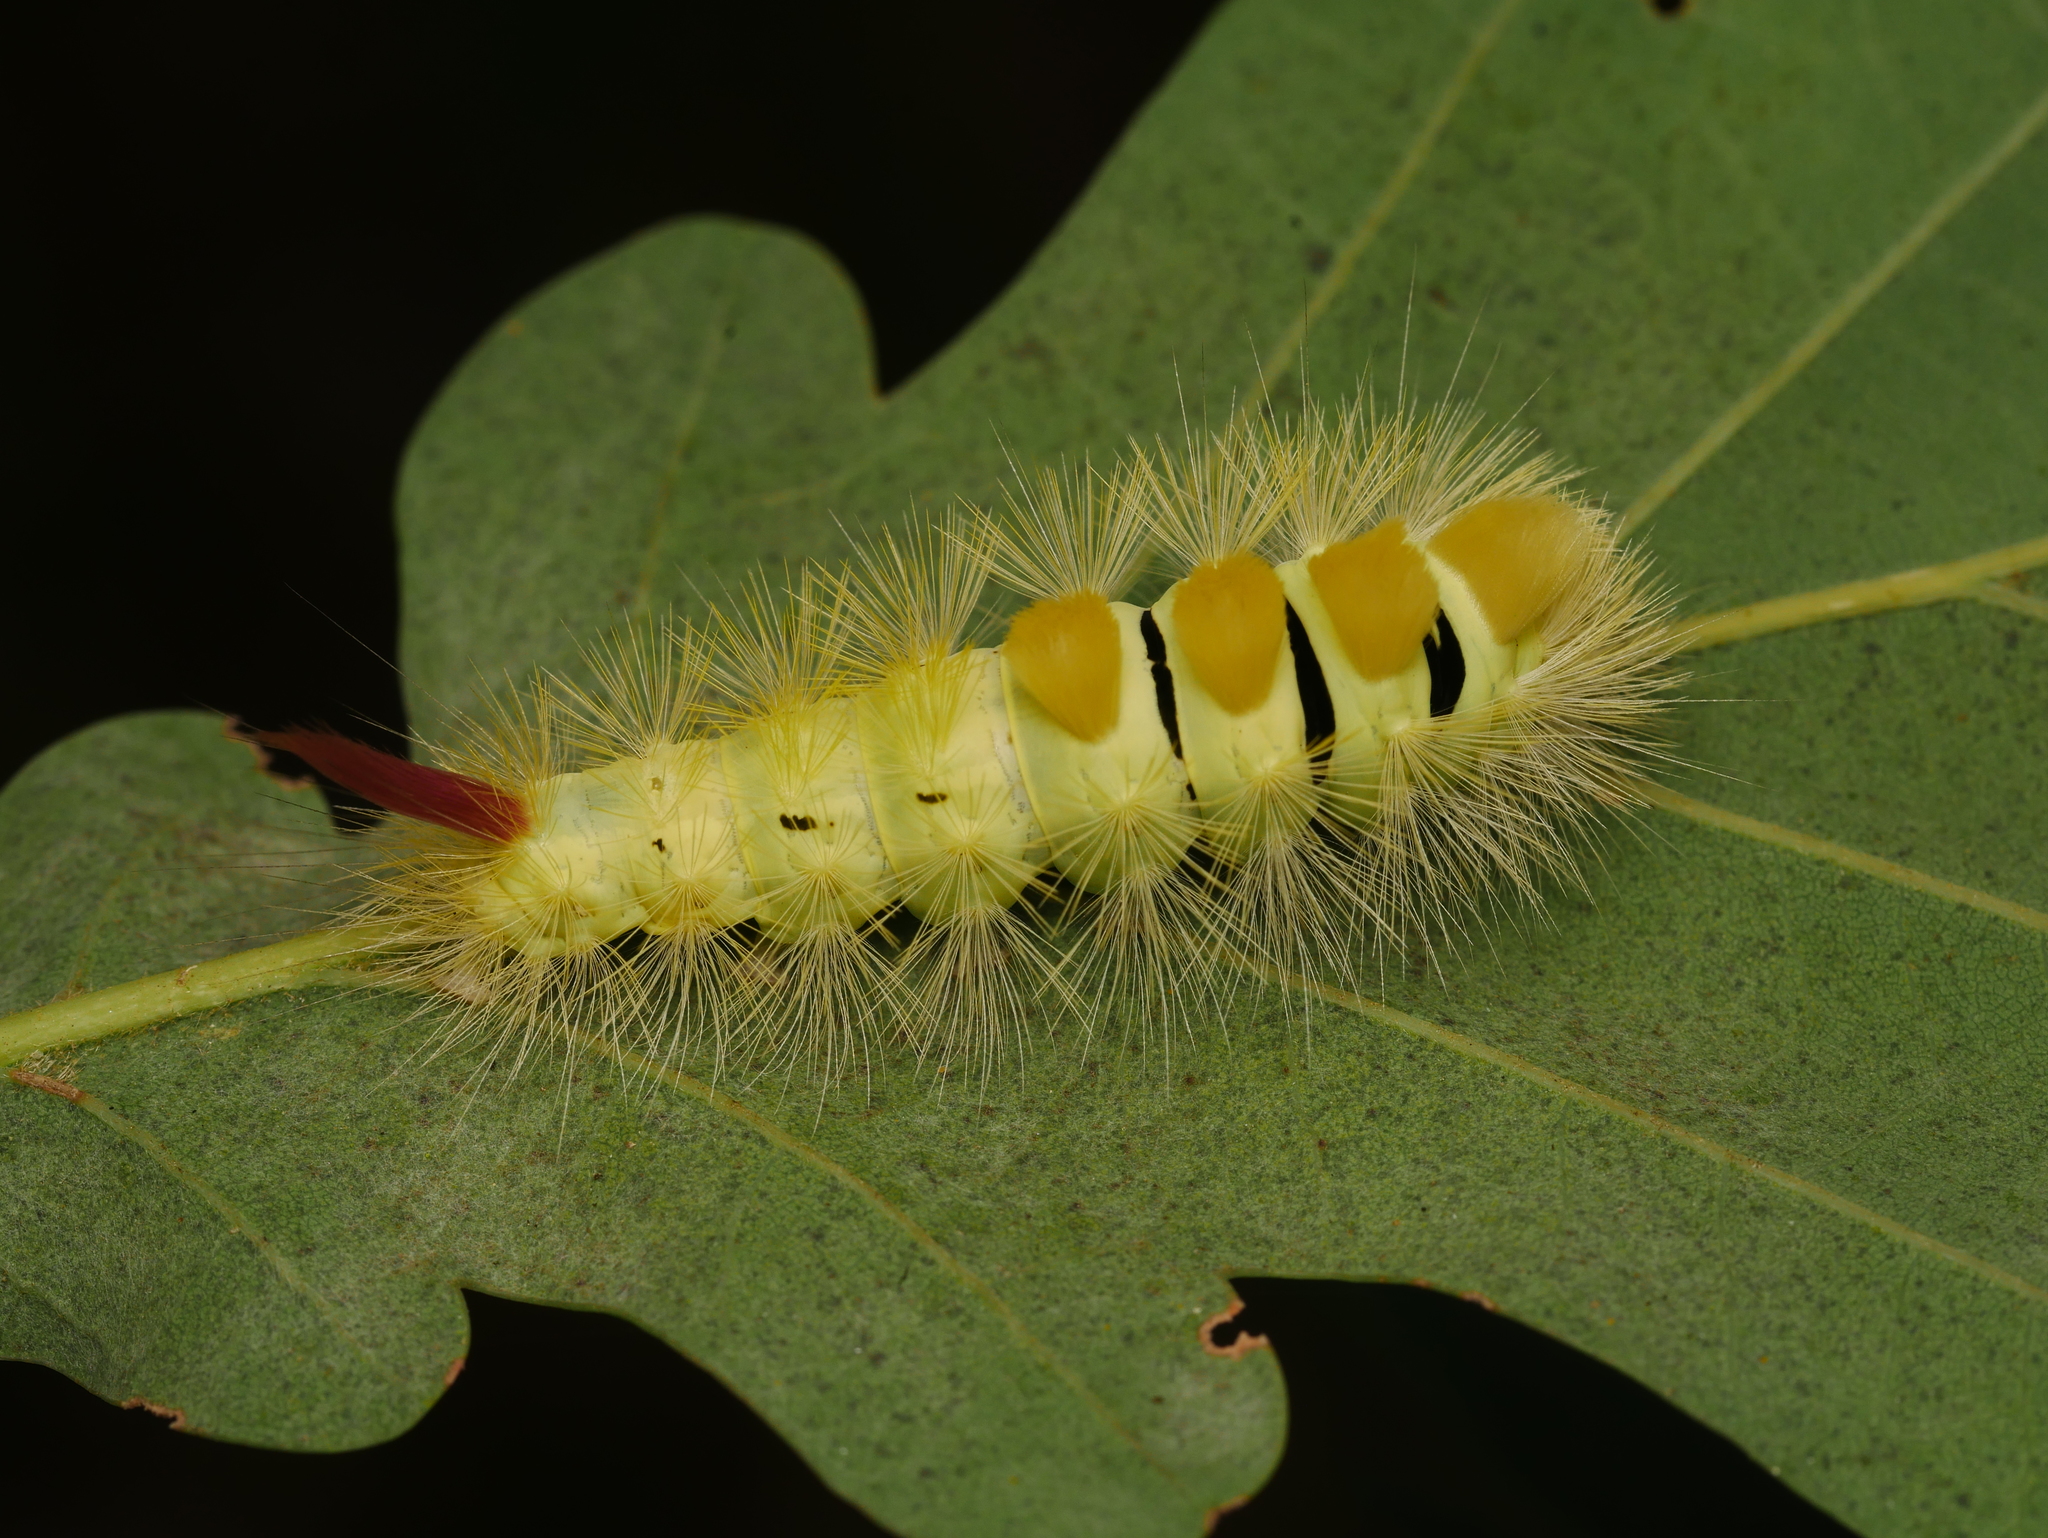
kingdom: Animalia
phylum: Arthropoda
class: Insecta
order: Lepidoptera
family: Erebidae
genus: Calliteara
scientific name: Calliteara pudibunda
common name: Pale tussock
